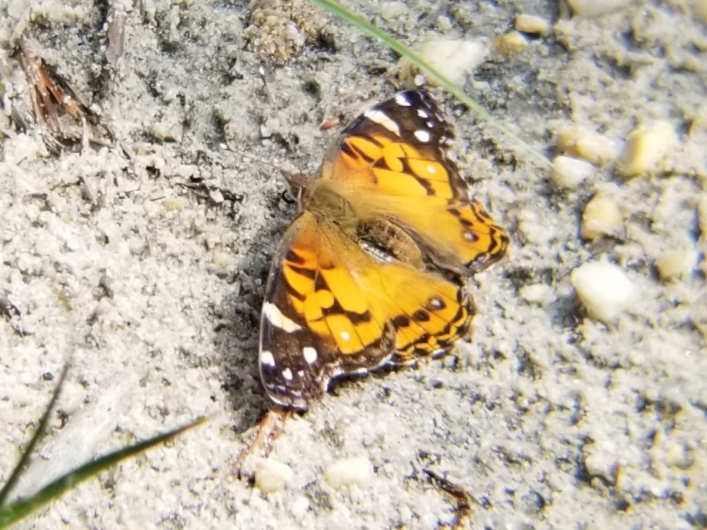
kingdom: Animalia
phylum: Arthropoda
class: Insecta
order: Lepidoptera
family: Nymphalidae
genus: Vanessa
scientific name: Vanessa virginiensis
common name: American lady
